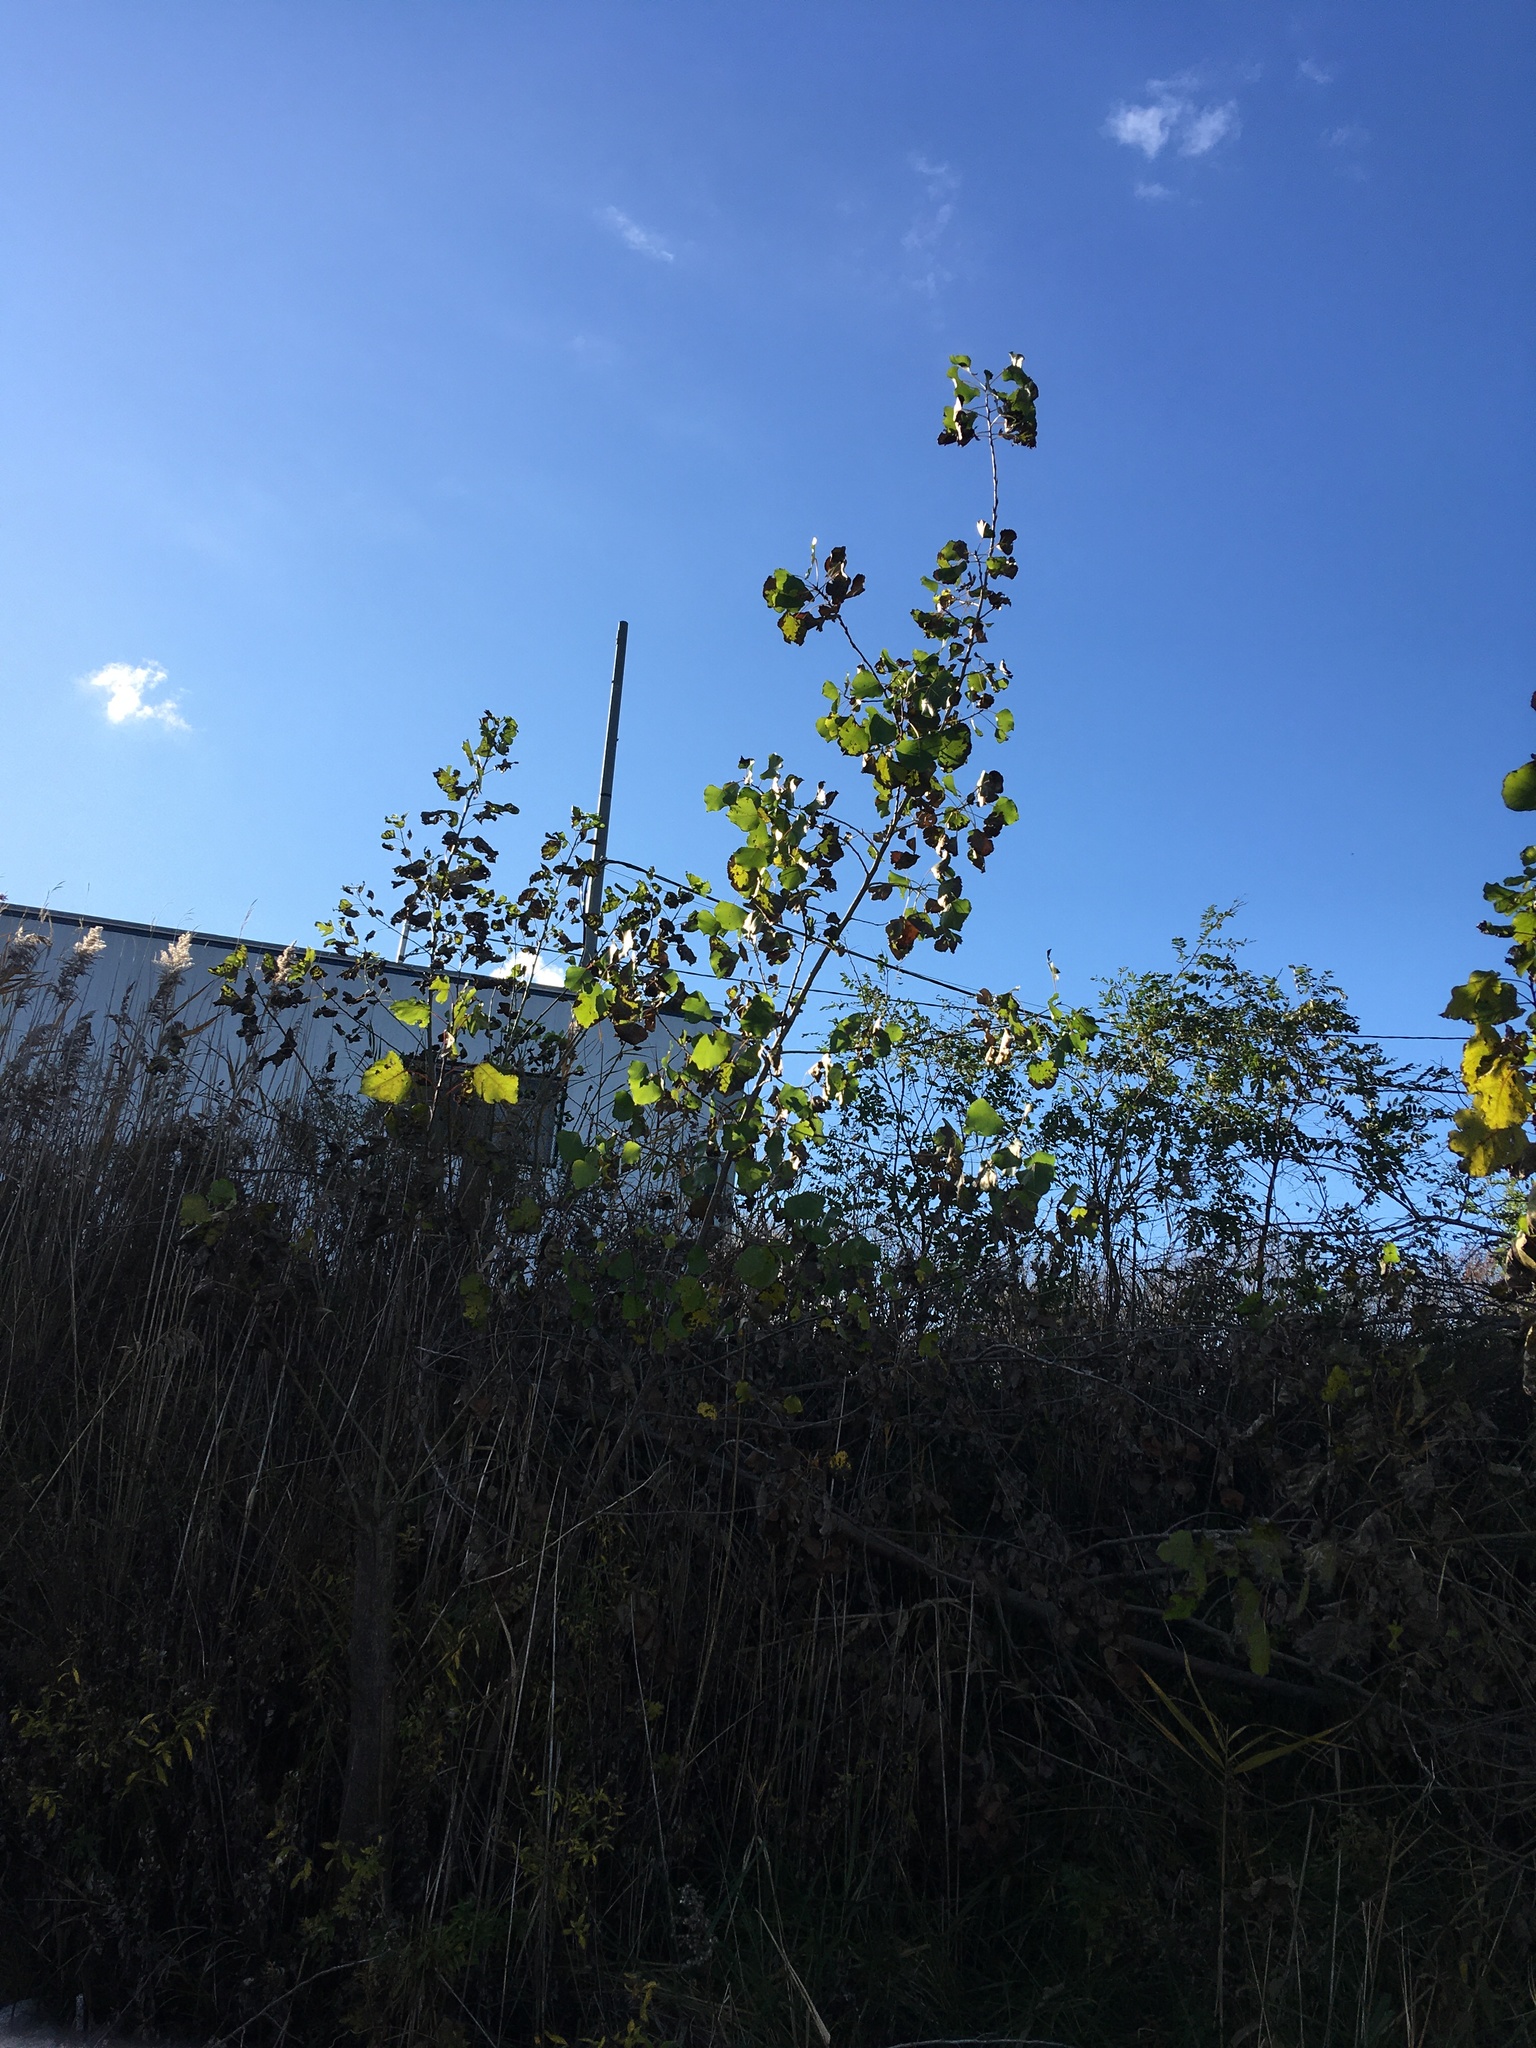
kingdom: Plantae
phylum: Tracheophyta
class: Magnoliopsida
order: Malpighiales
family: Salicaceae
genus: Populus
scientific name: Populus deltoides
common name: Eastern cottonwood
